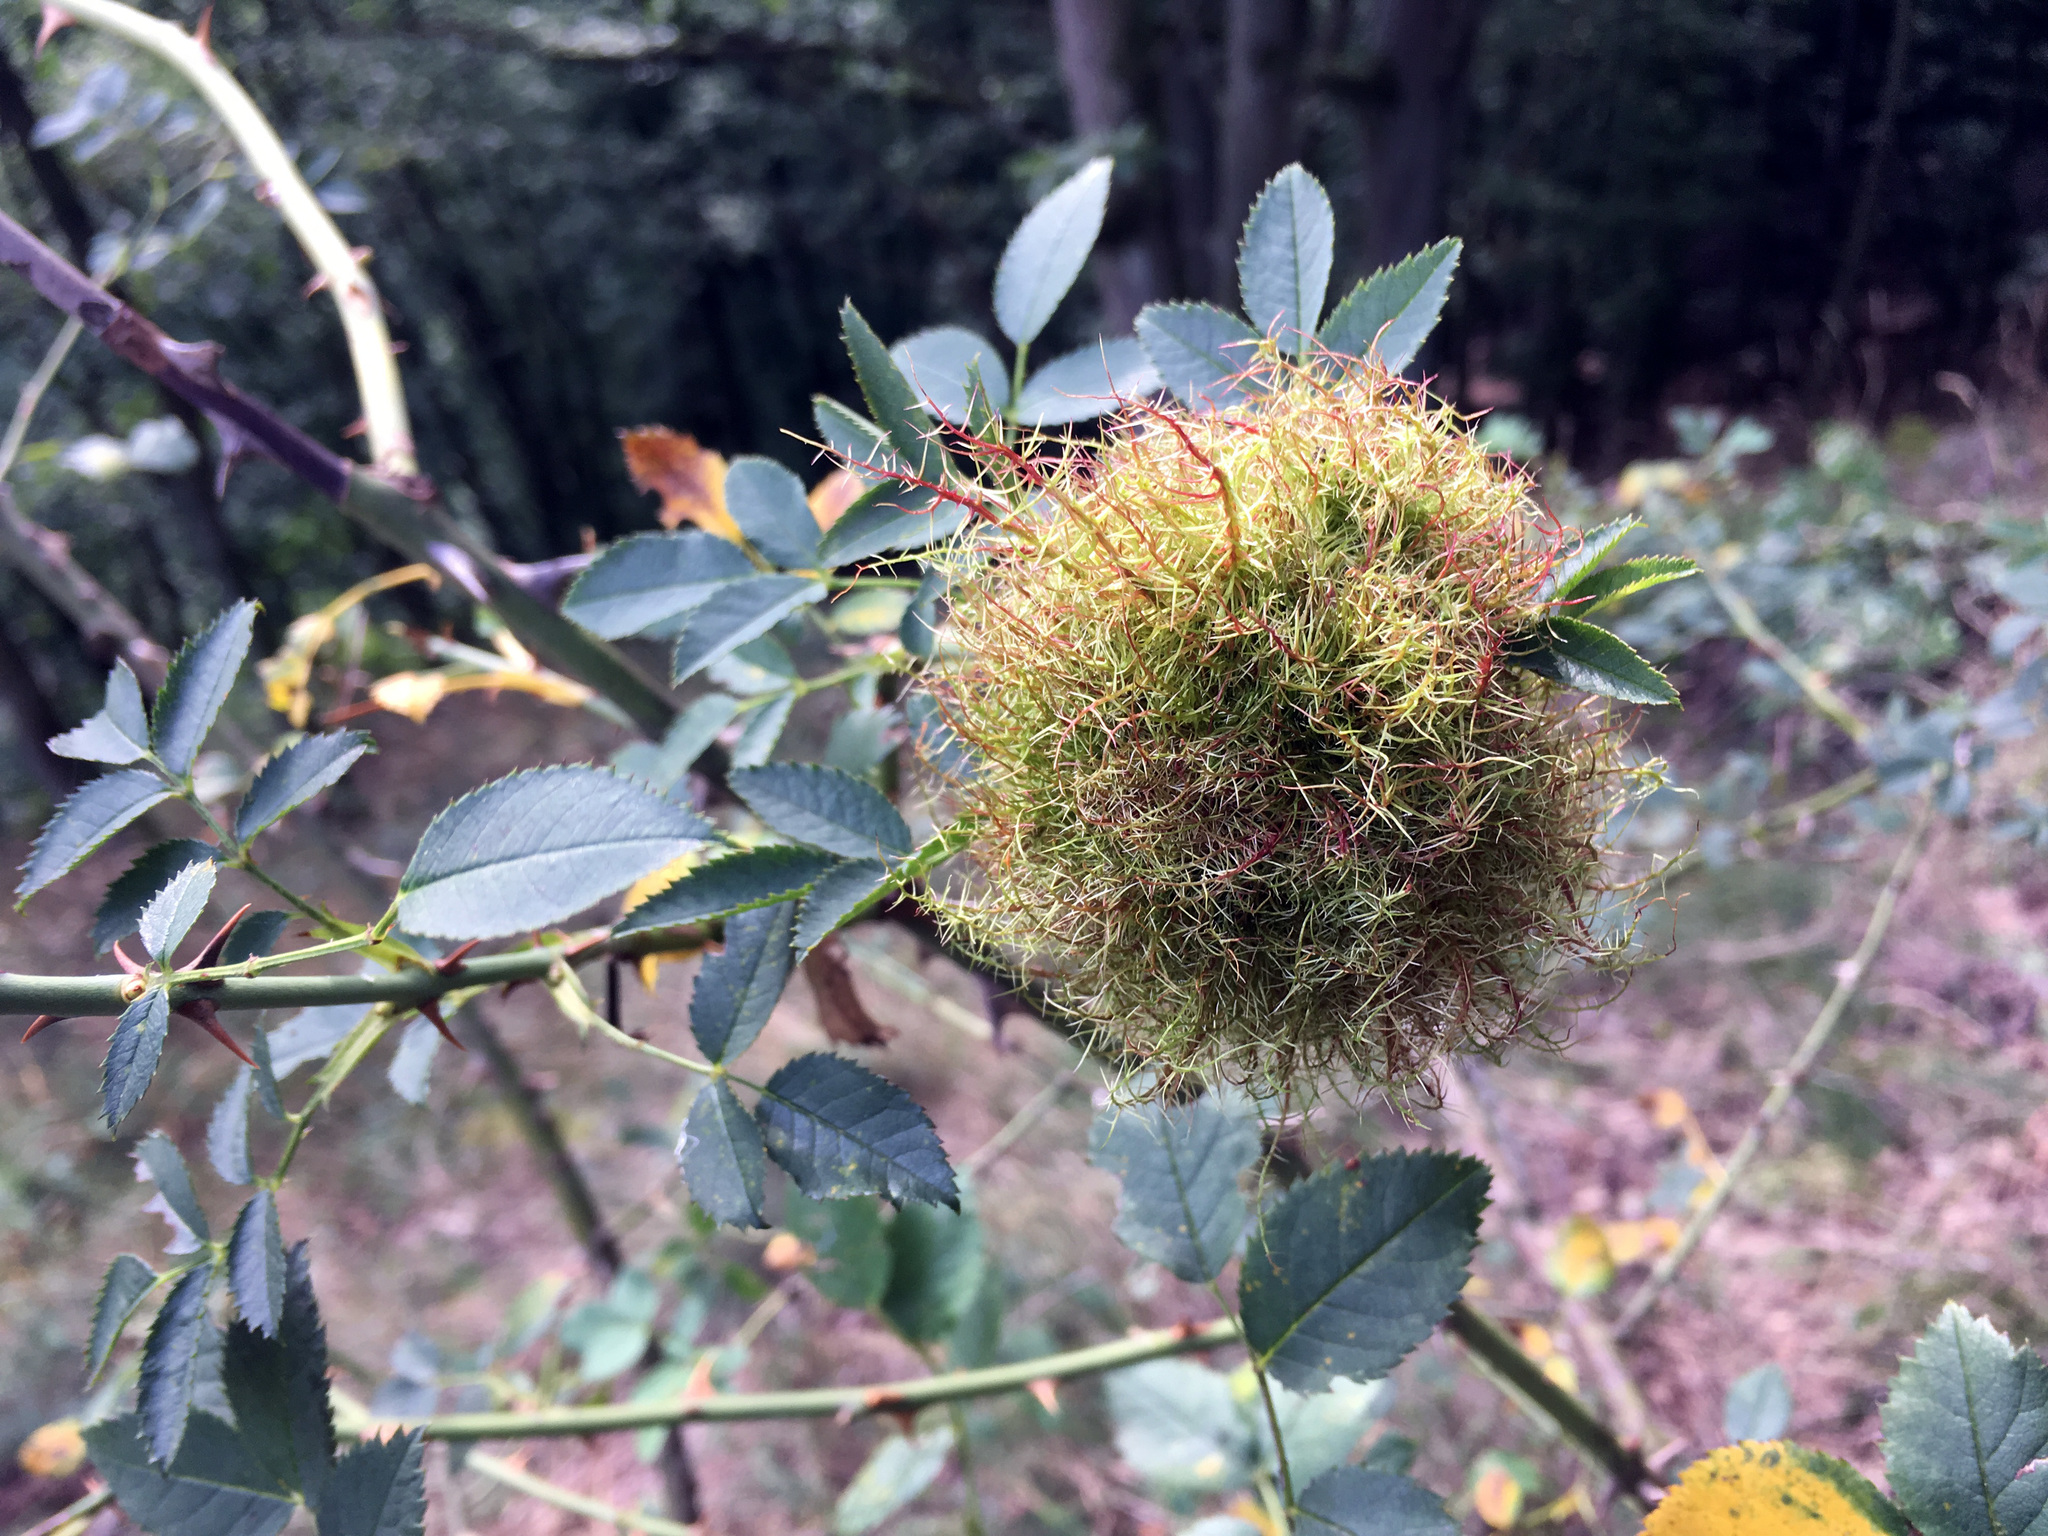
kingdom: Animalia
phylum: Arthropoda
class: Insecta
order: Hymenoptera
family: Cynipidae
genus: Diplolepis
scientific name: Diplolepis rosae
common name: Bedeguar gall
